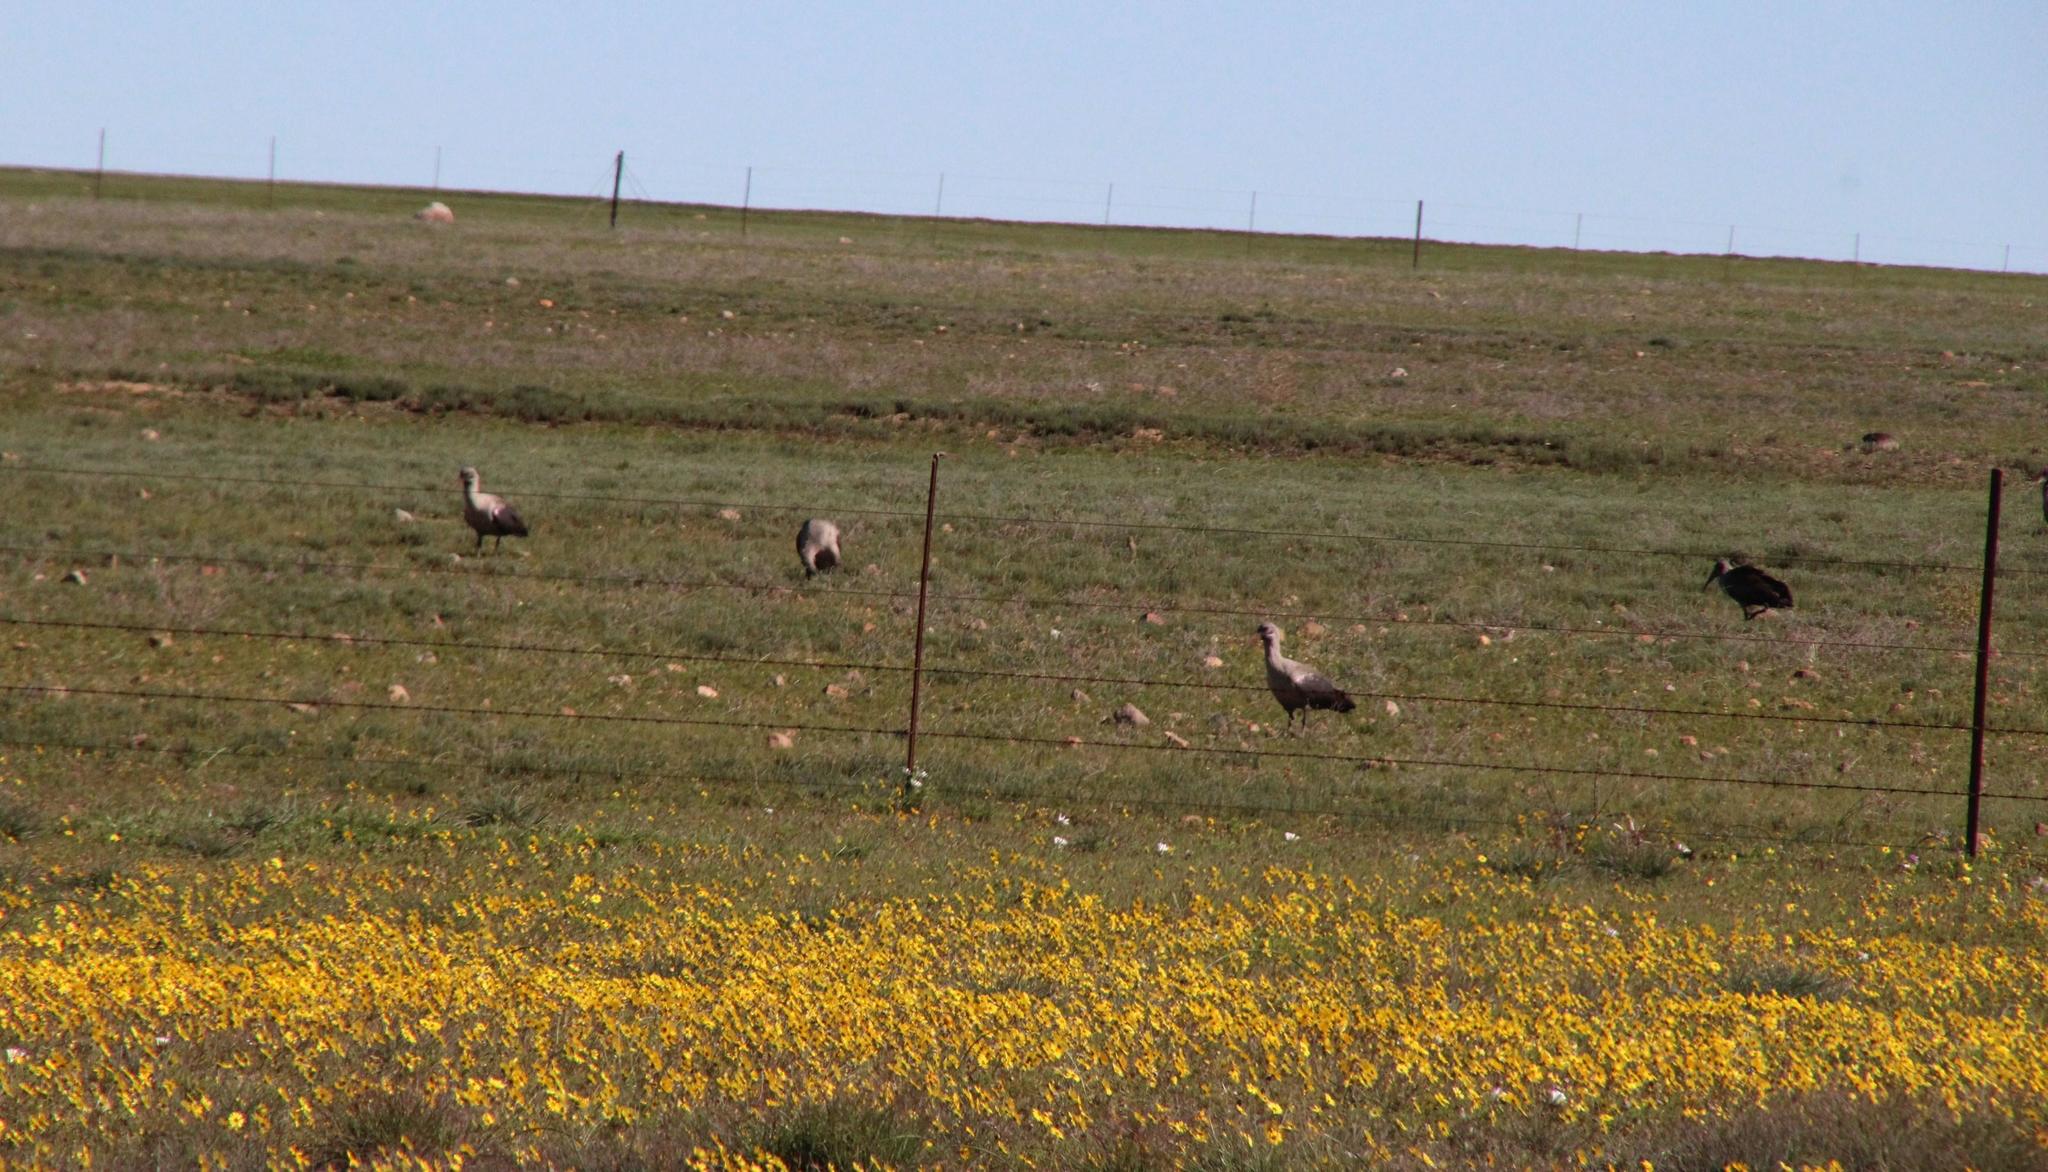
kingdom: Animalia
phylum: Chordata
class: Aves
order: Pelecaniformes
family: Threskiornithidae
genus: Bostrychia
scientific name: Bostrychia hagedash
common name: Hadada ibis
